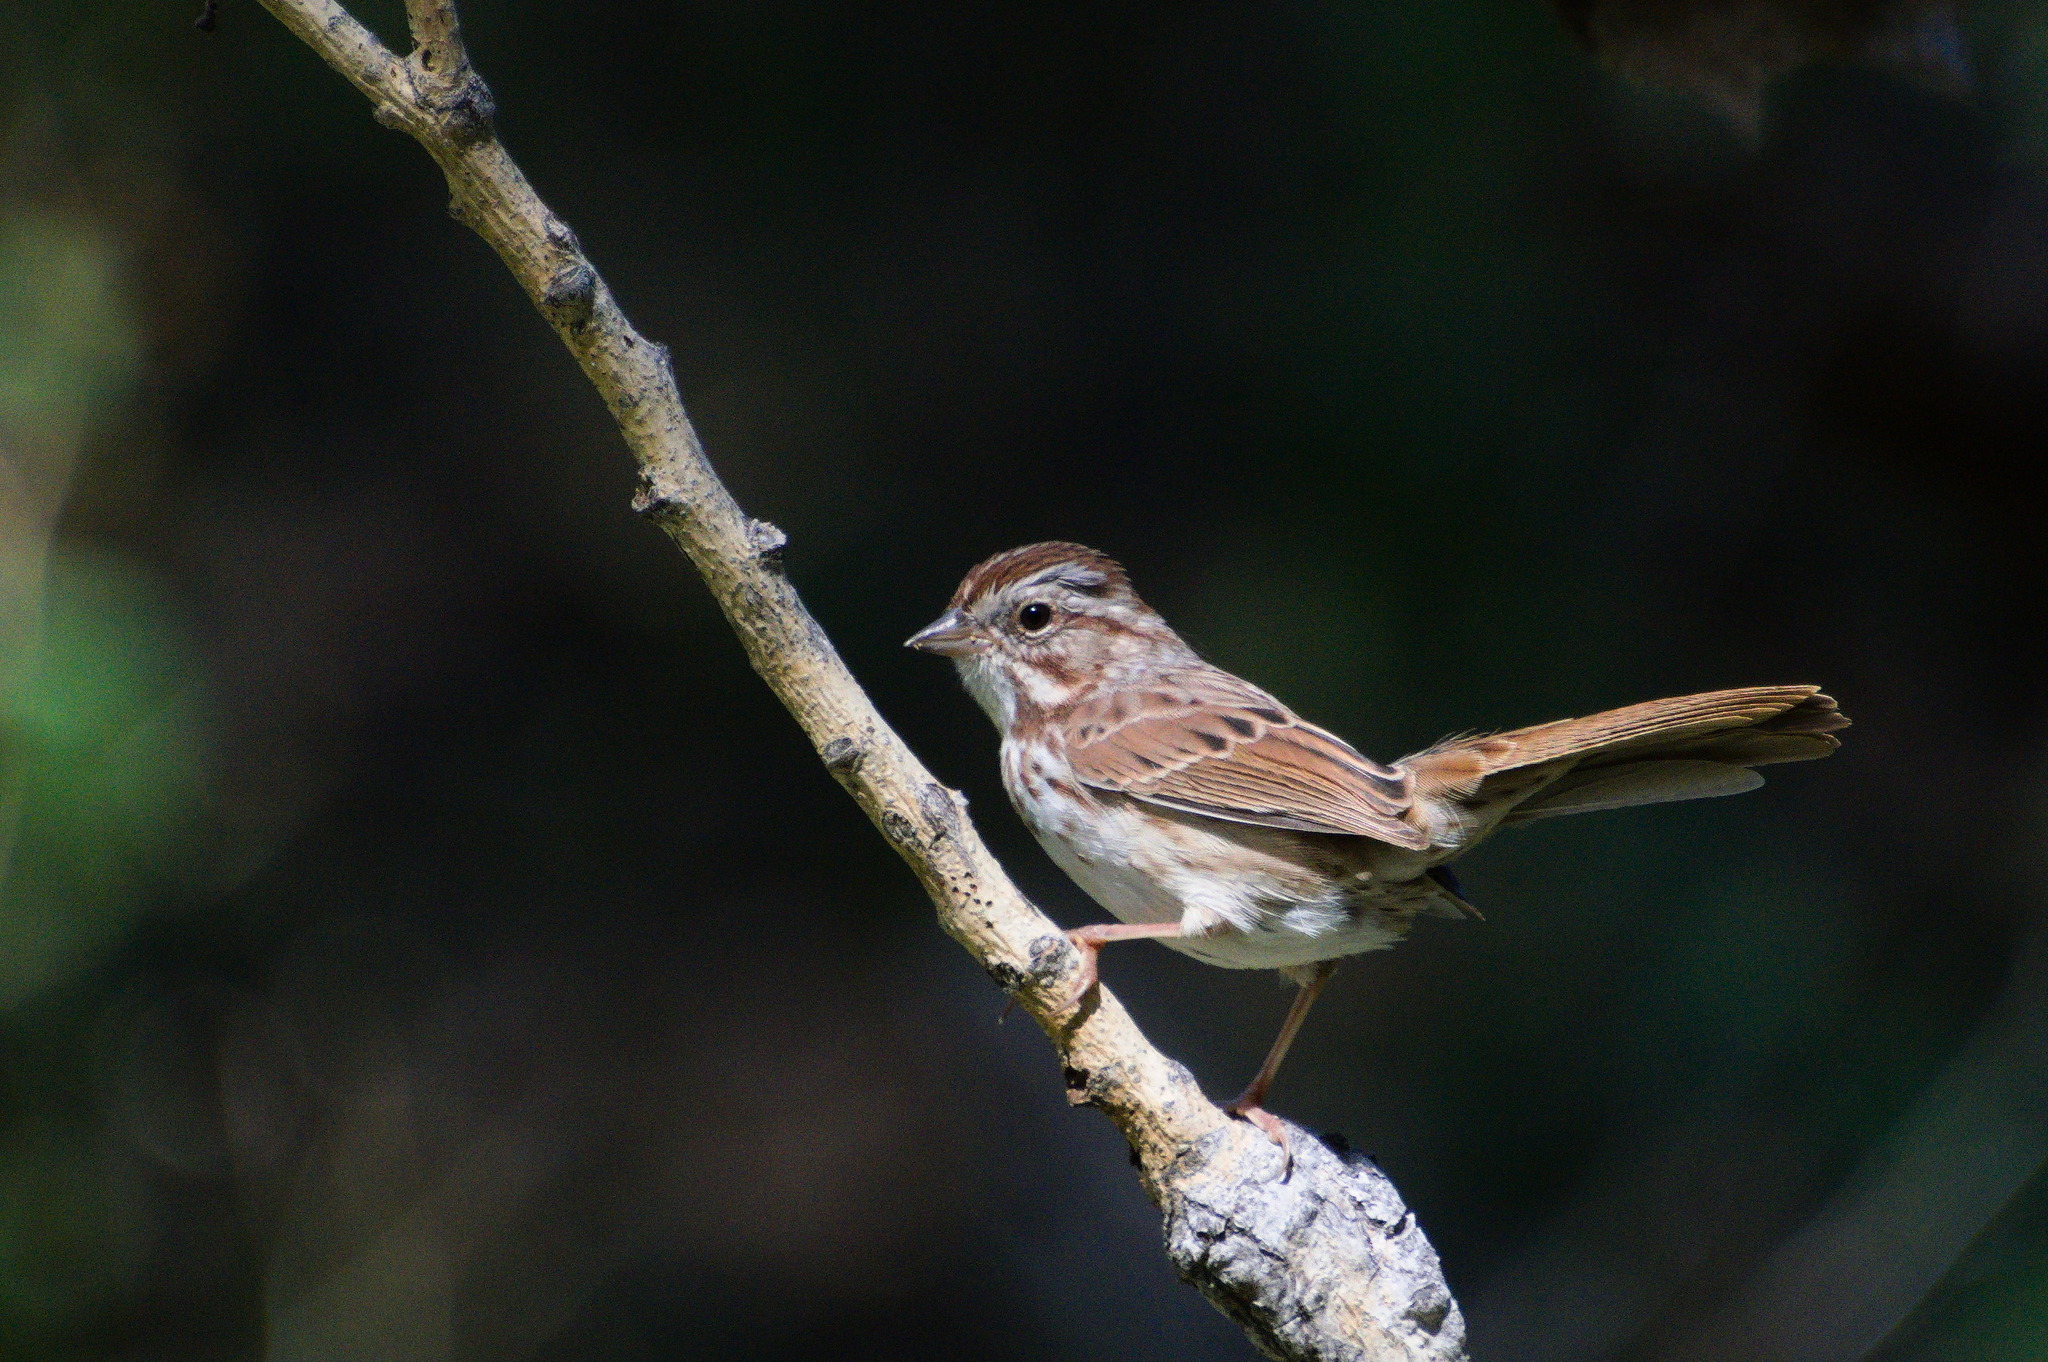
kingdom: Animalia
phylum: Chordata
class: Aves
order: Passeriformes
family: Passerellidae
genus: Melospiza
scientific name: Melospiza melodia
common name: Song sparrow
